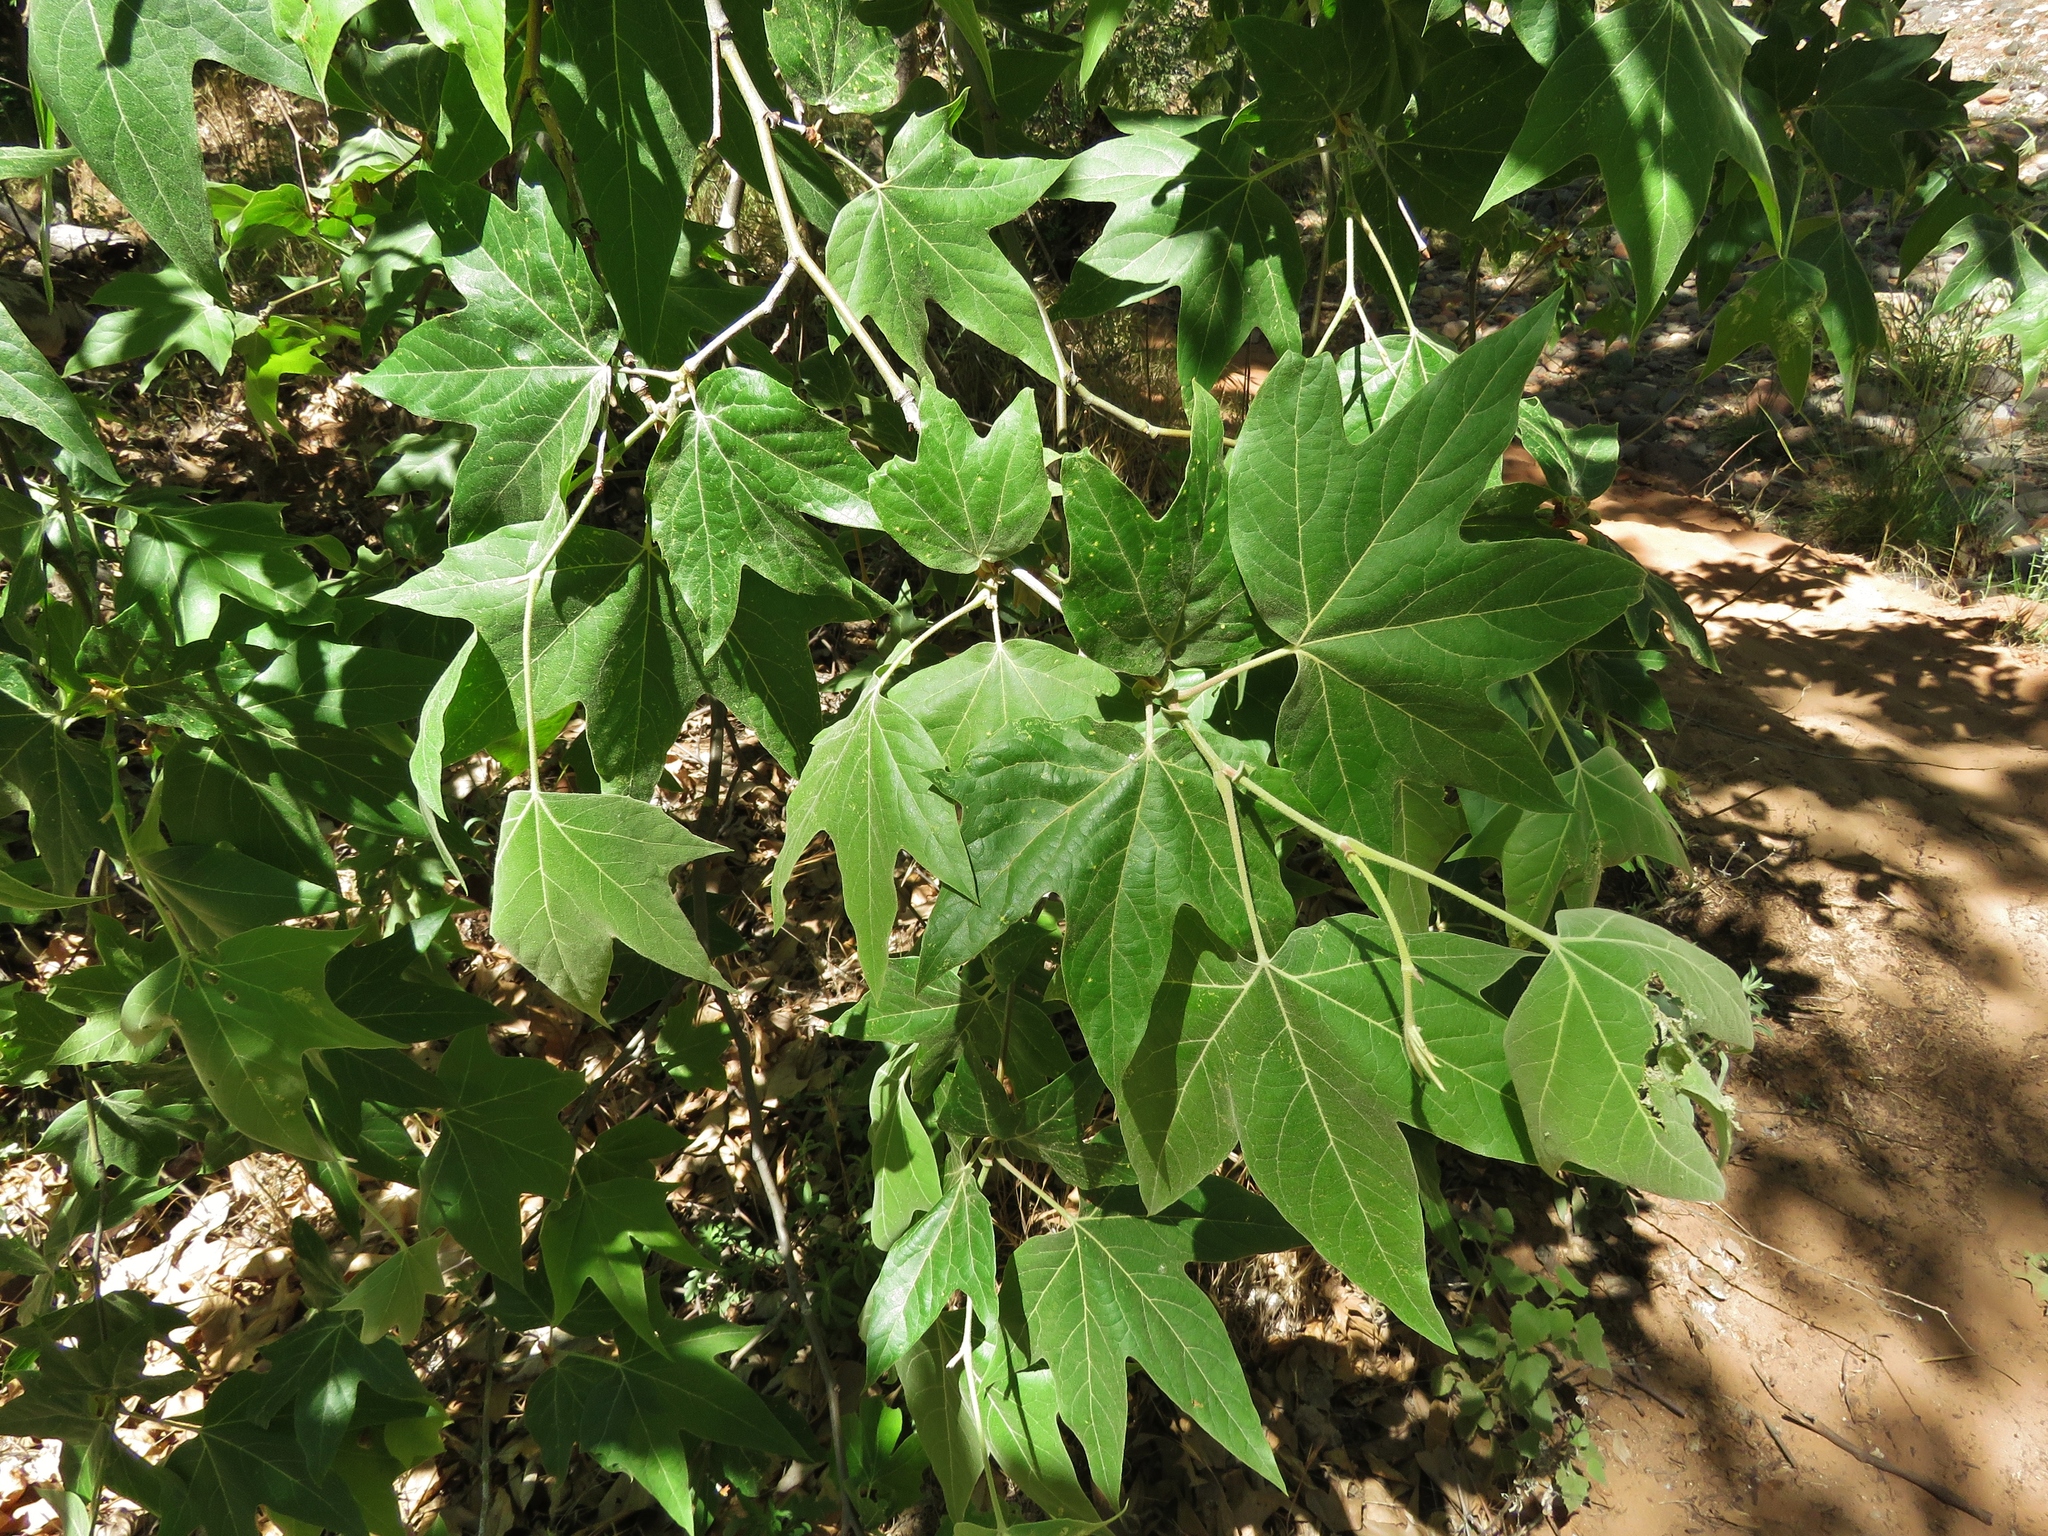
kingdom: Plantae
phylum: Tracheophyta
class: Magnoliopsida
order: Proteales
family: Platanaceae
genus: Platanus
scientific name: Platanus wrightii
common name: Arizona sycamore
